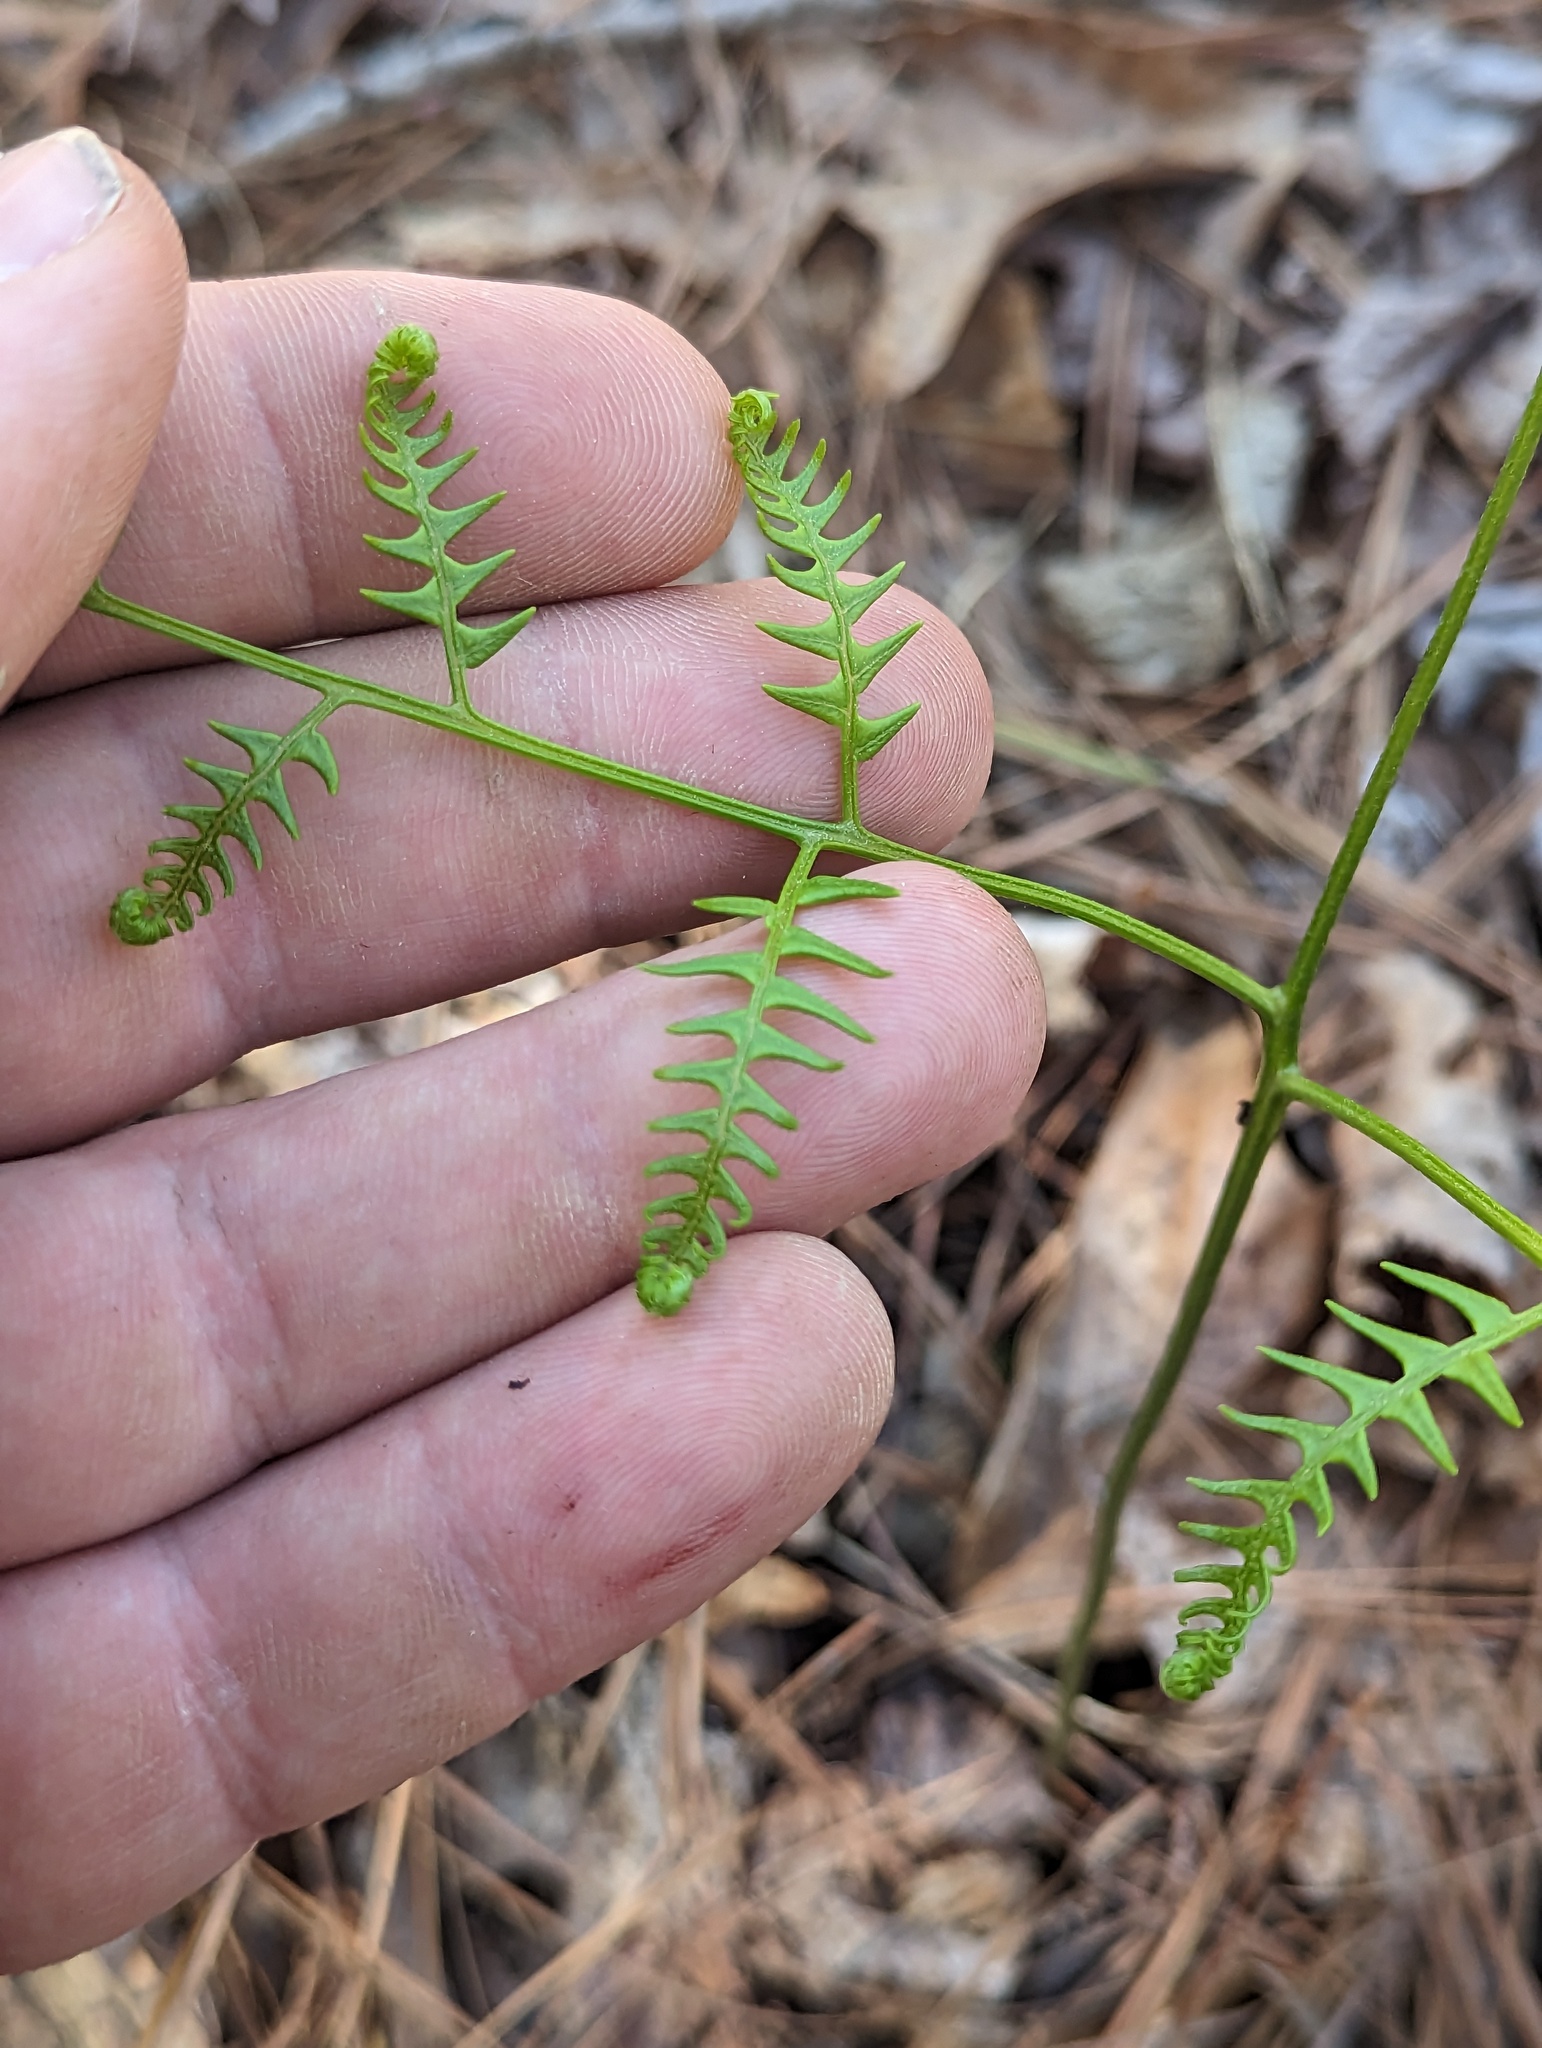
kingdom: Plantae
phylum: Tracheophyta
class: Polypodiopsida
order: Polypodiales
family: Dennstaedtiaceae
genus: Pteridium
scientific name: Pteridium aquilinum
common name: Bracken
